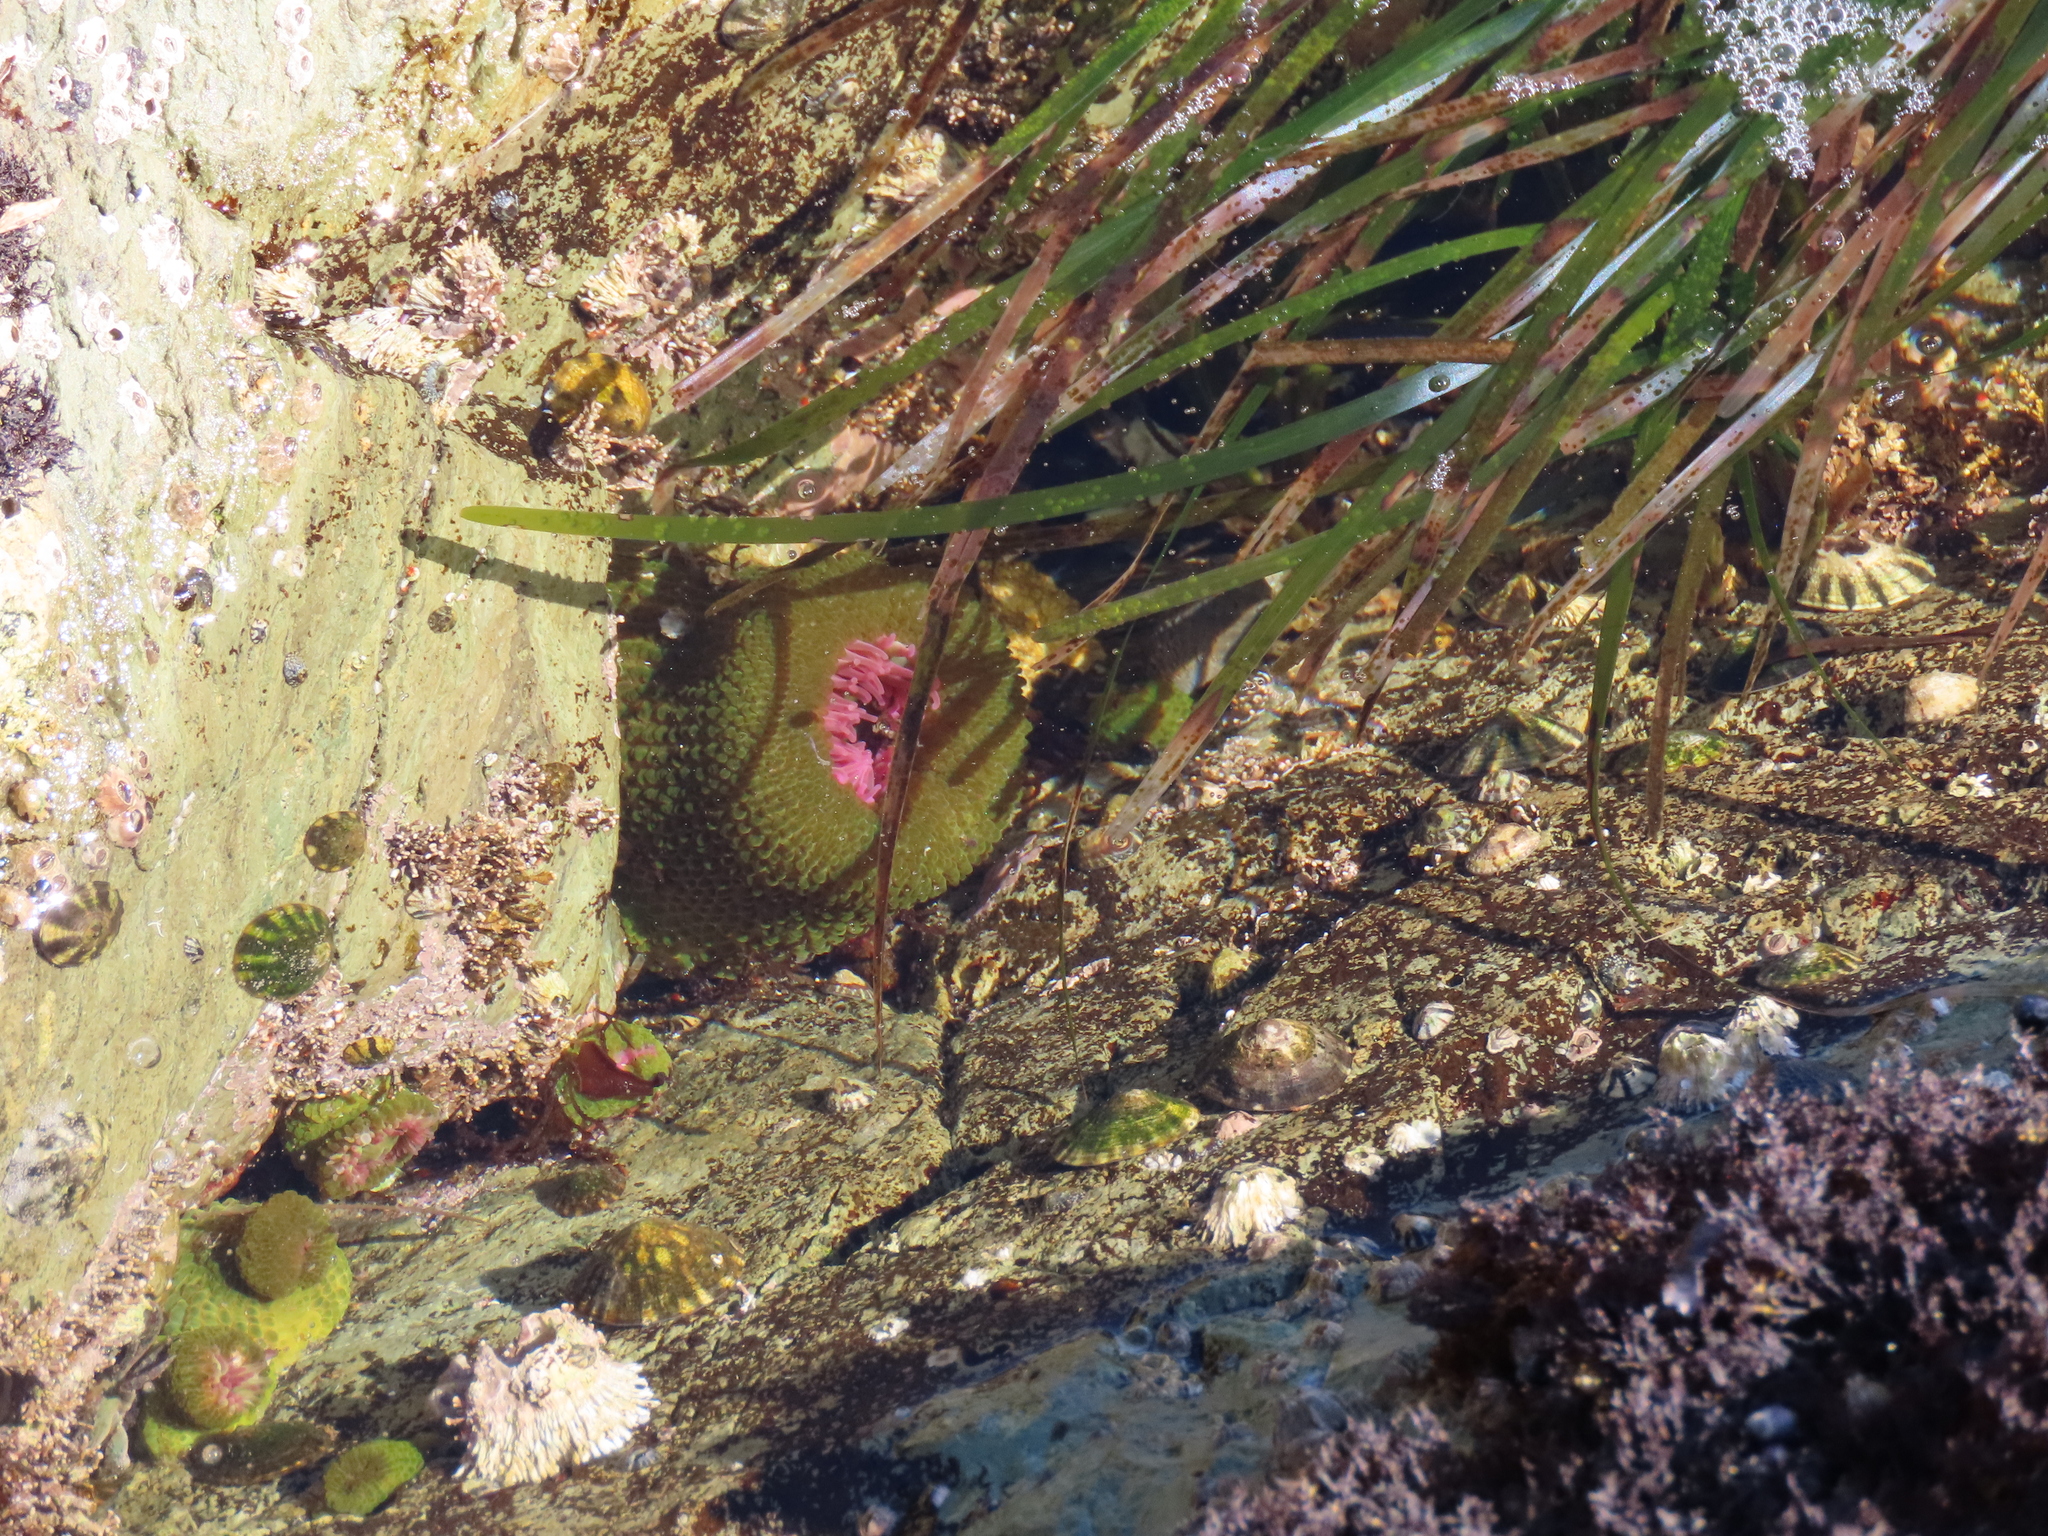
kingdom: Animalia
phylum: Cnidaria
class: Anthozoa
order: Actiniaria
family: Actiniidae
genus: Anthopleura
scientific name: Anthopleura elegantissima
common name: Clonal anemone
